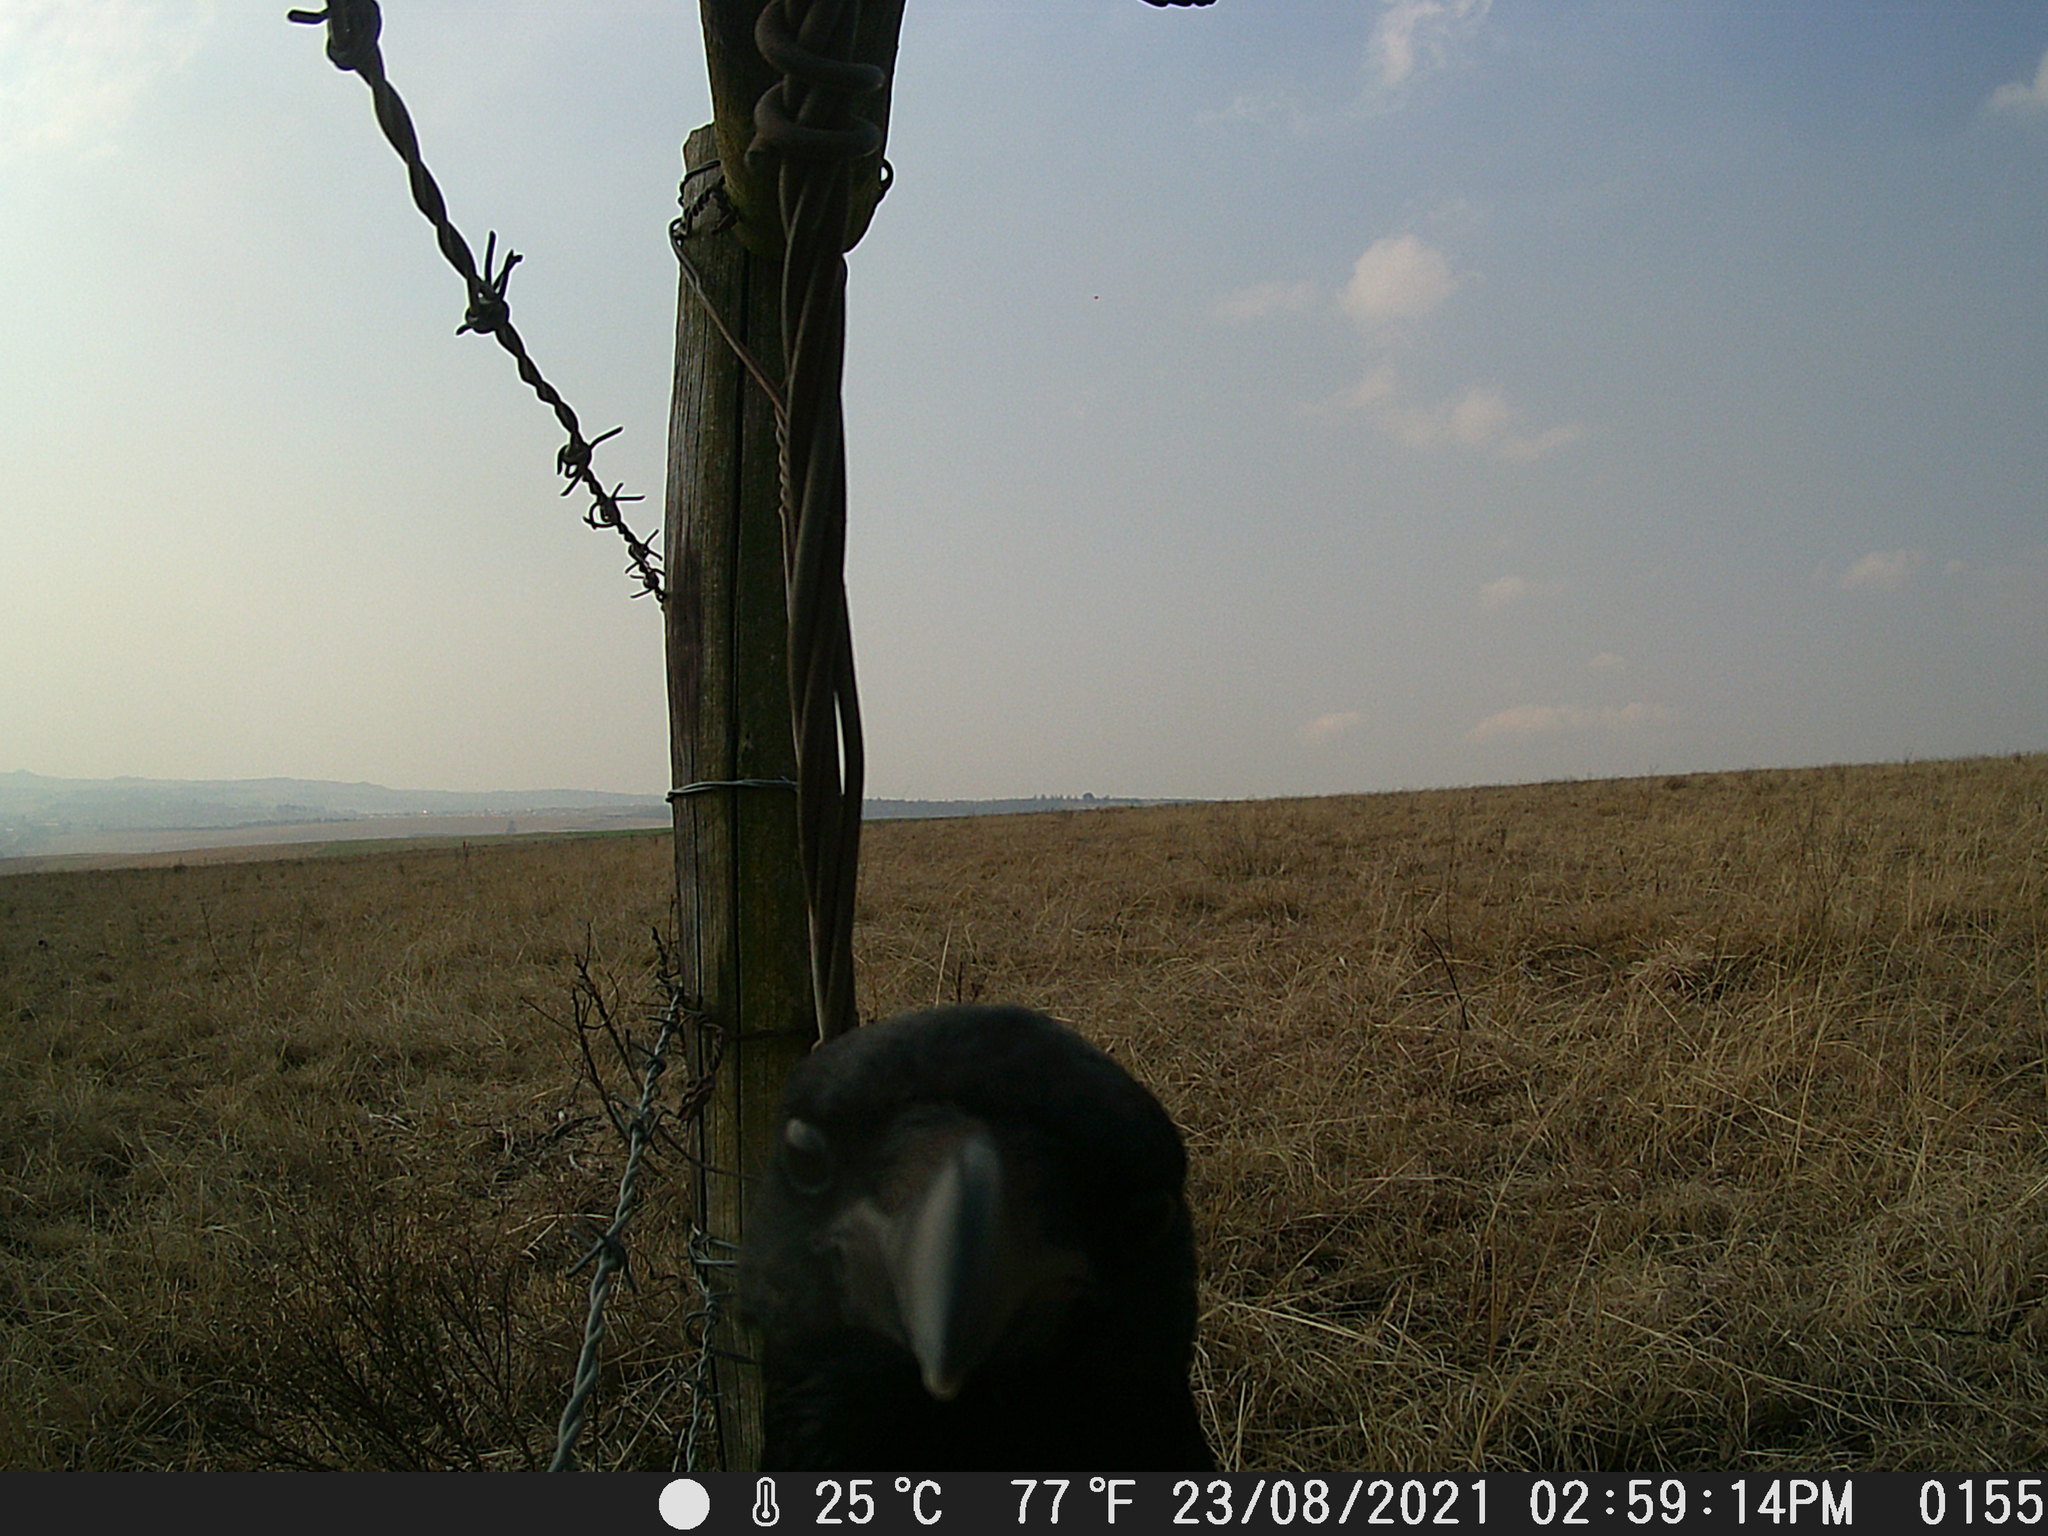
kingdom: Animalia
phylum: Chordata
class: Aves
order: Passeriformes
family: Corvidae
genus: Corvus
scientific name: Corvus albus
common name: Pied crow
